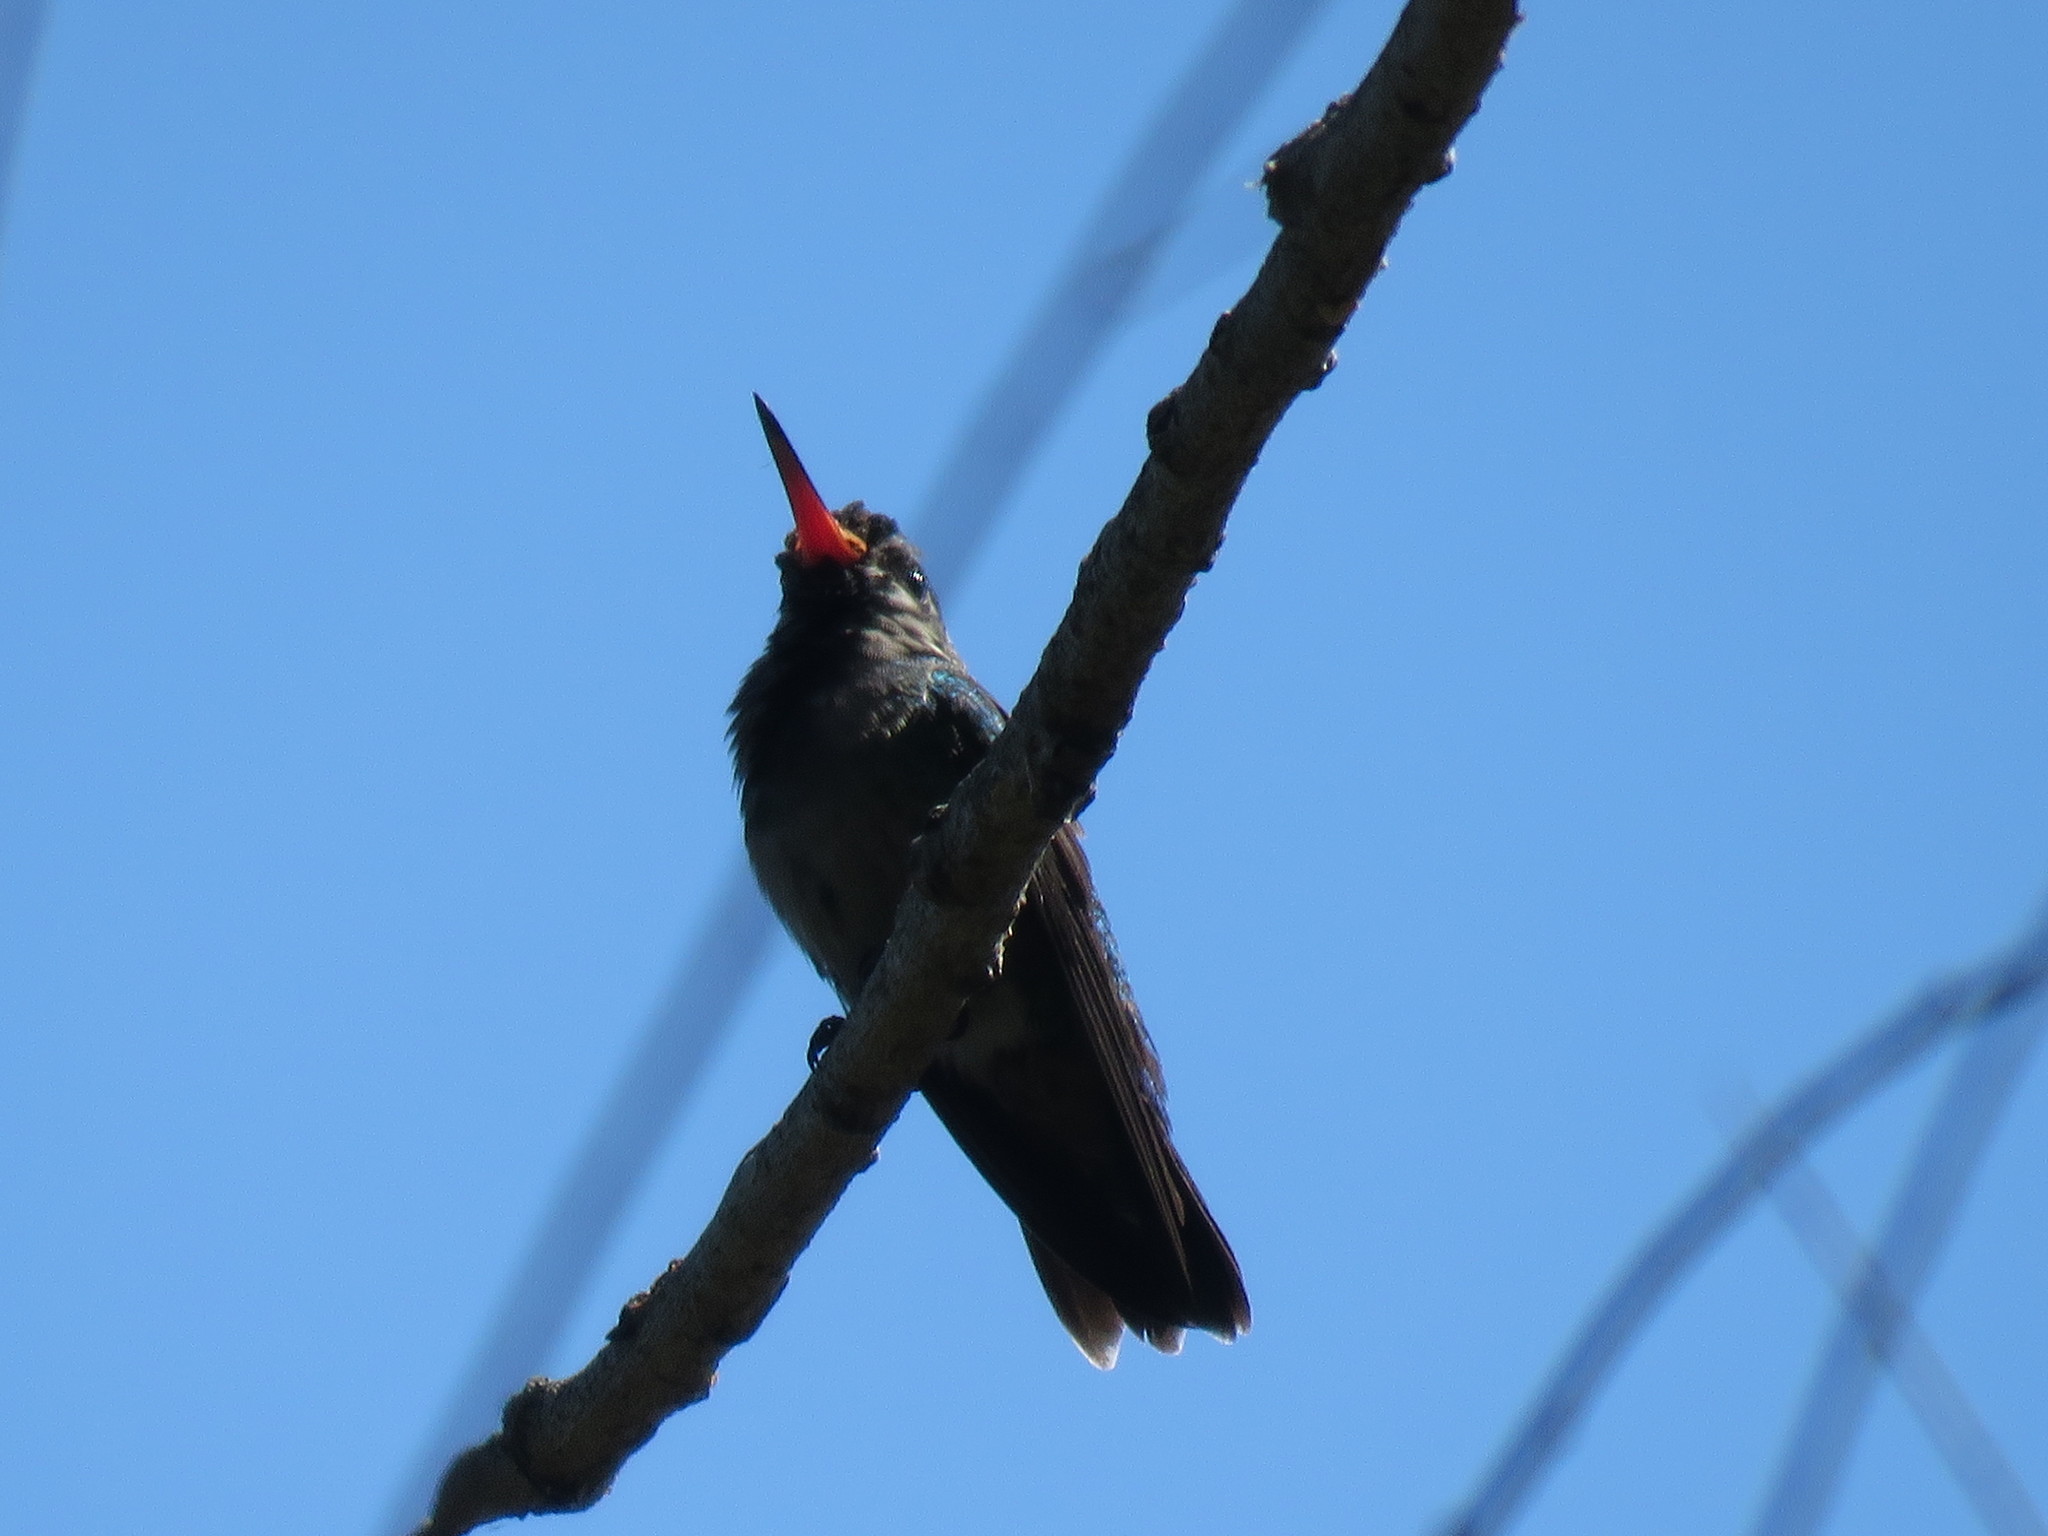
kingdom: Animalia
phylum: Chordata
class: Aves
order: Apodiformes
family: Trochilidae
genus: Chlorostilbon
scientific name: Chlorostilbon lucidus
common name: Glittering-bellied emerald
